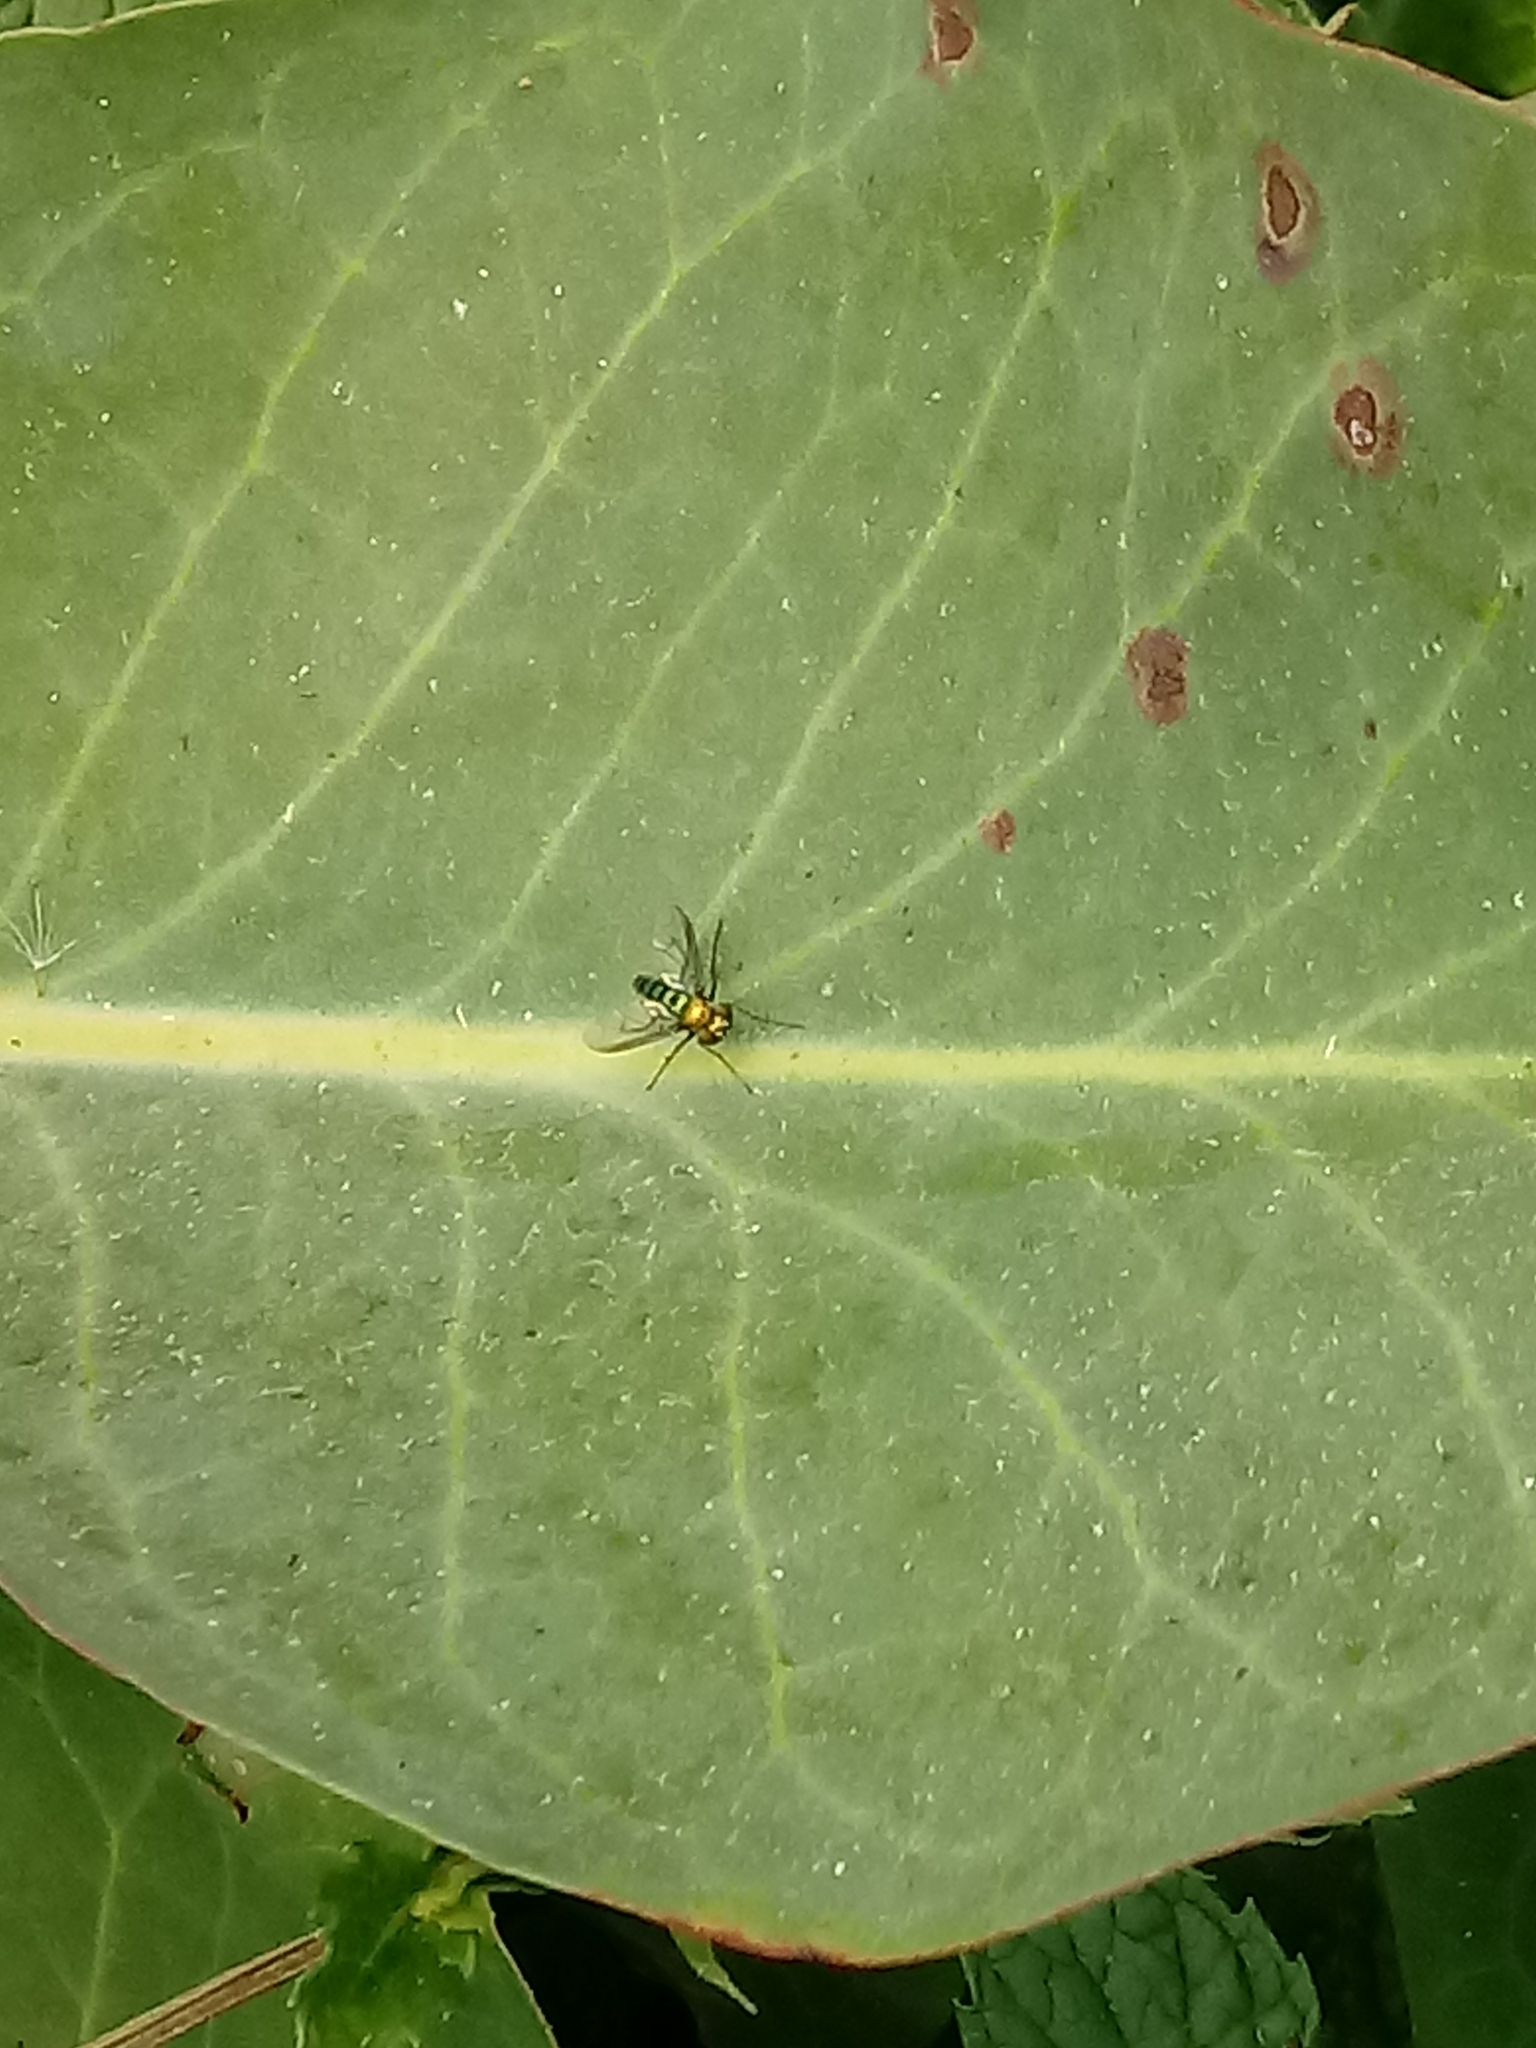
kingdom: Animalia
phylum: Arthropoda
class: Insecta
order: Diptera
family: Dolichopodidae
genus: Condylostylus
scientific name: Condylostylus longicornis
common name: Long-legged fly
